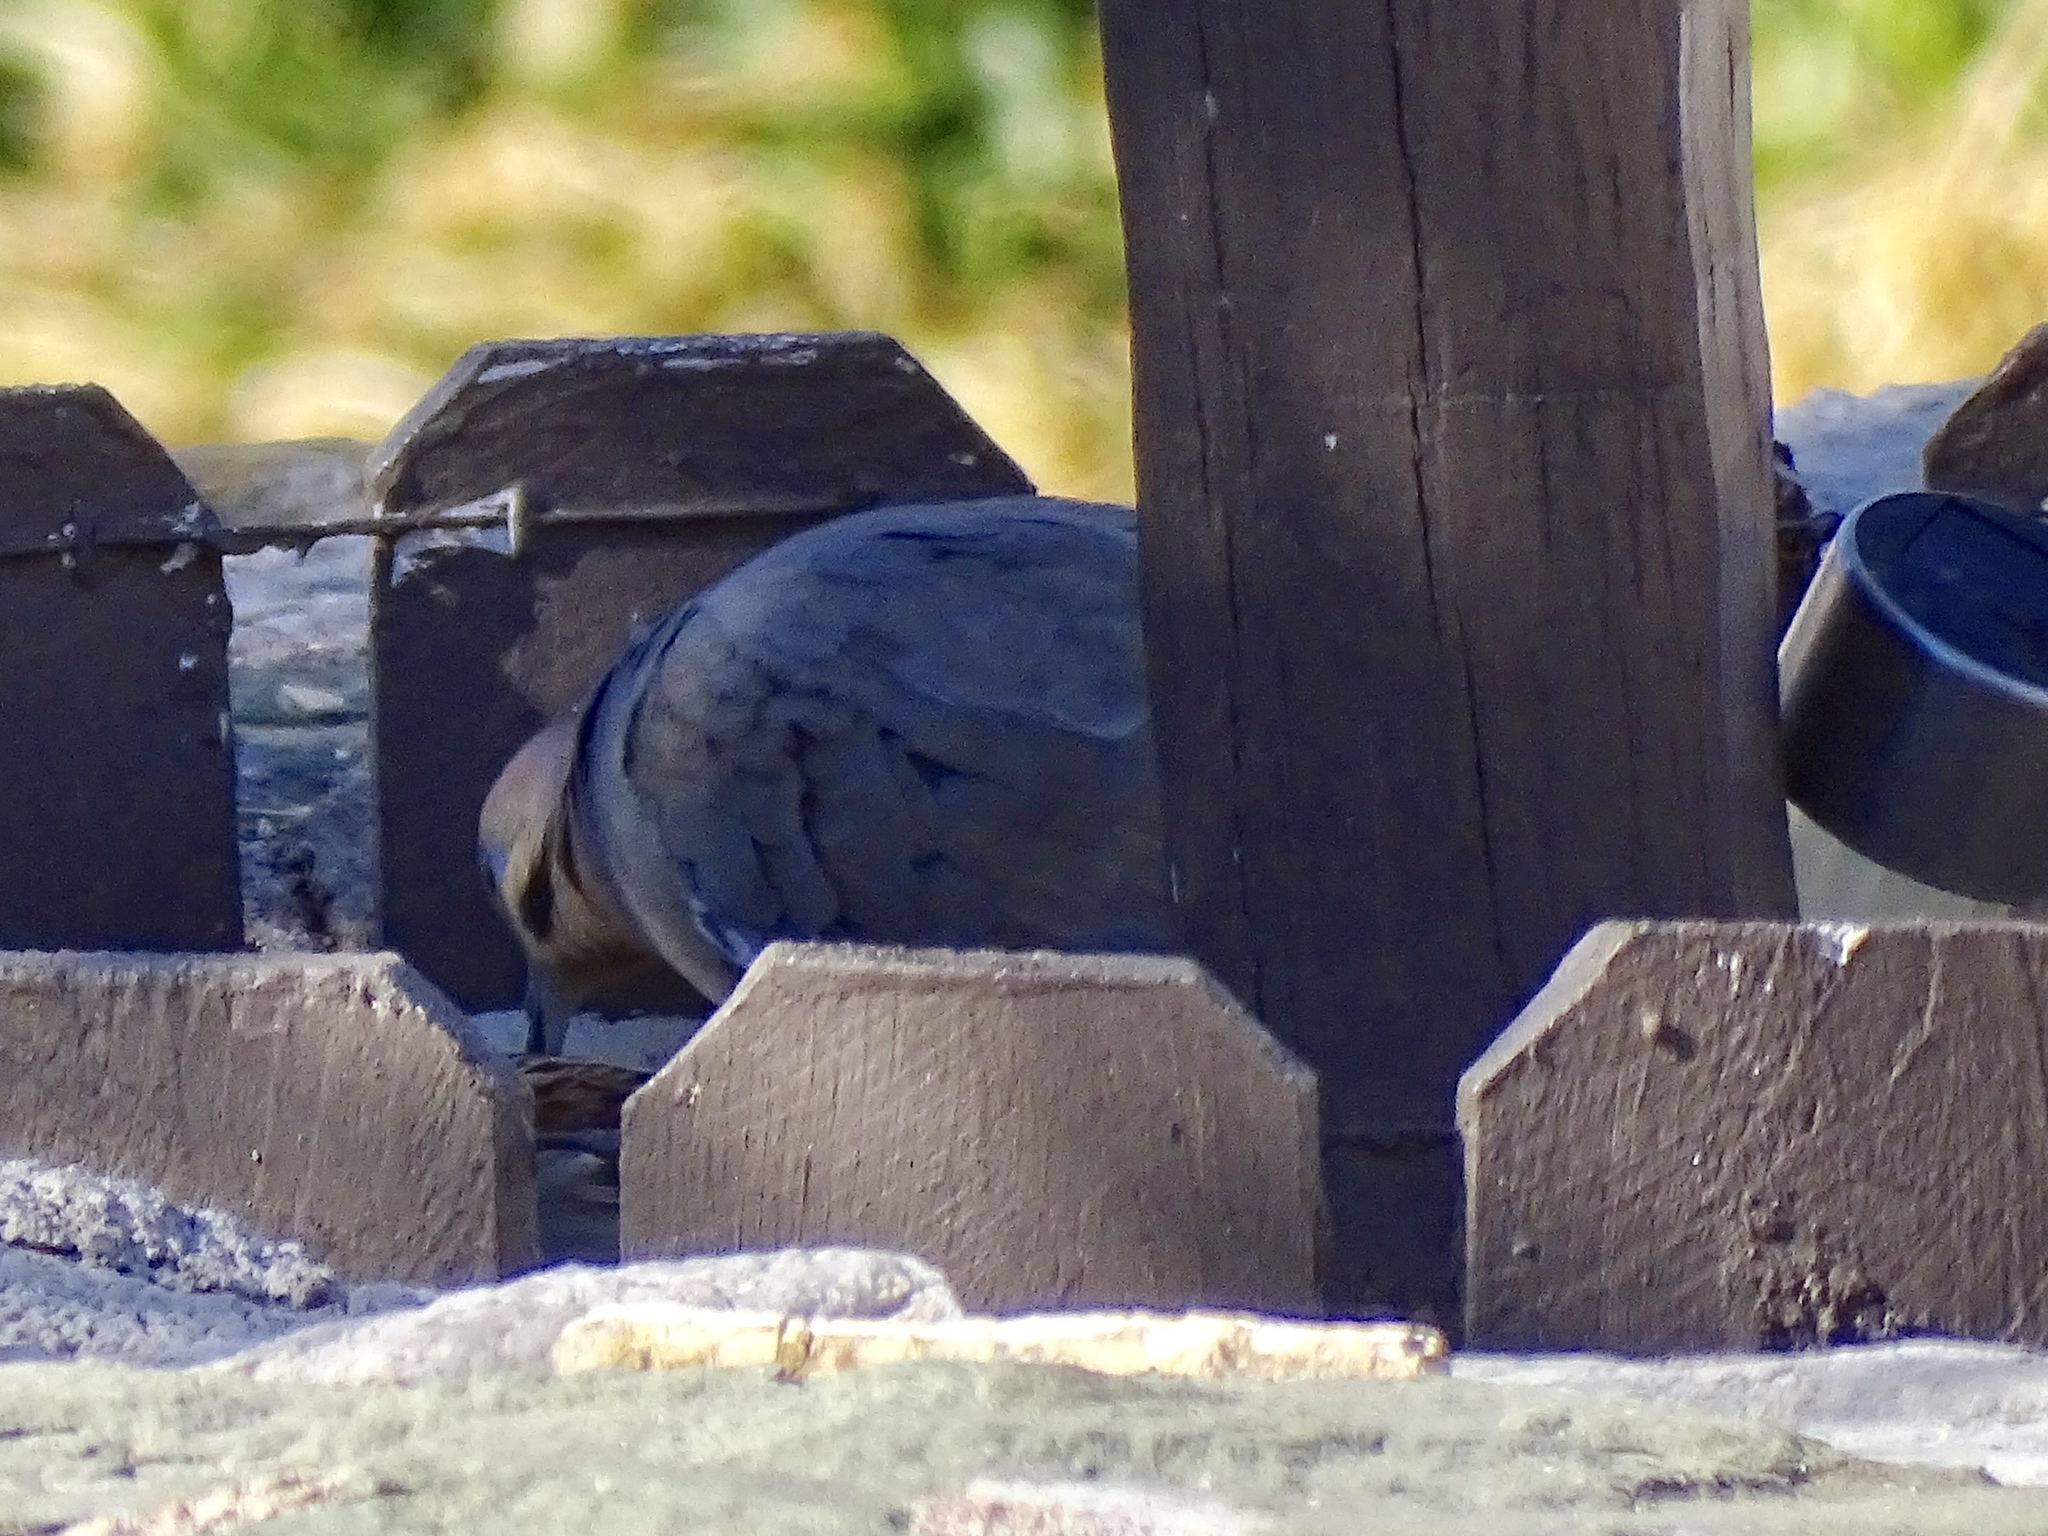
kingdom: Animalia
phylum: Chordata
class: Aves
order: Columbiformes
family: Columbidae
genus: Zenaida
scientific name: Zenaida asiatica
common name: White-winged dove
